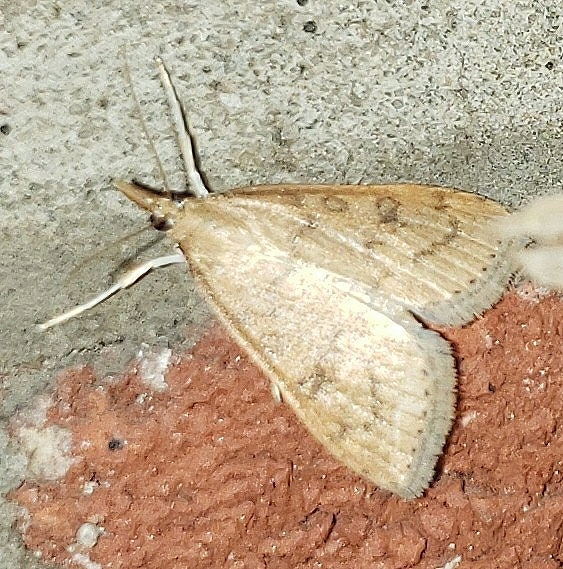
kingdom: Animalia
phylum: Arthropoda
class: Insecta
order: Lepidoptera
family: Crambidae
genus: Udea
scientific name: Udea rubigalis
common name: Celery leaftier moth
